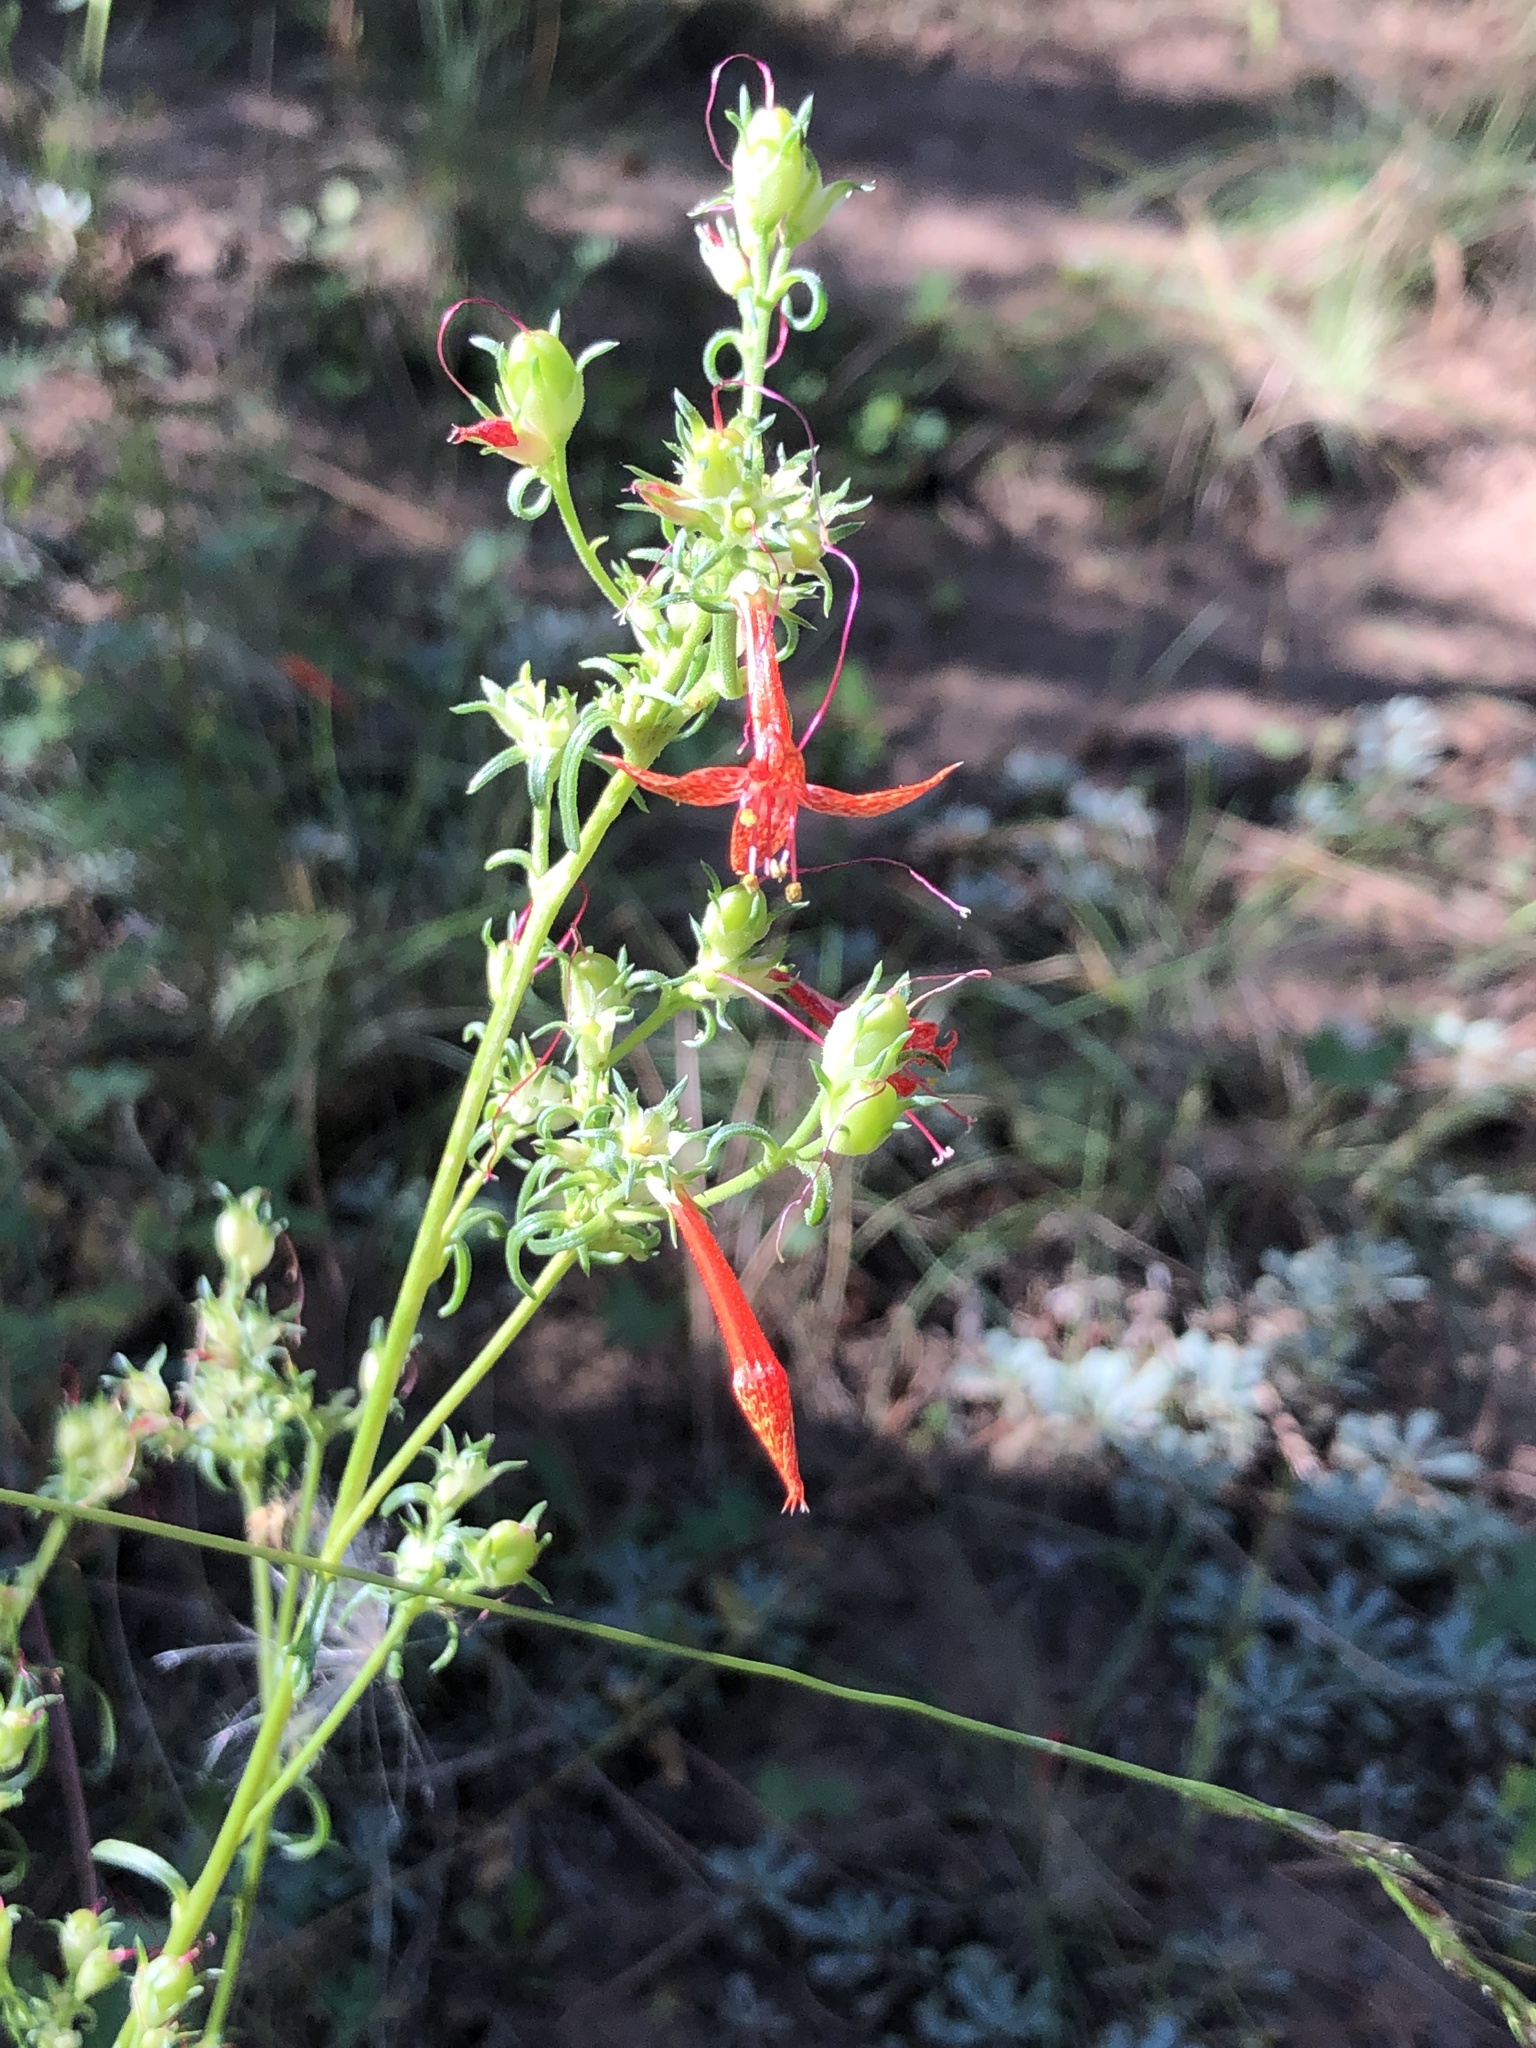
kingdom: Plantae
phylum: Tracheophyta
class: Magnoliopsida
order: Ericales
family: Polemoniaceae
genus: Ipomopsis
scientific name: Ipomopsis aggregata
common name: Scarlet gilia
